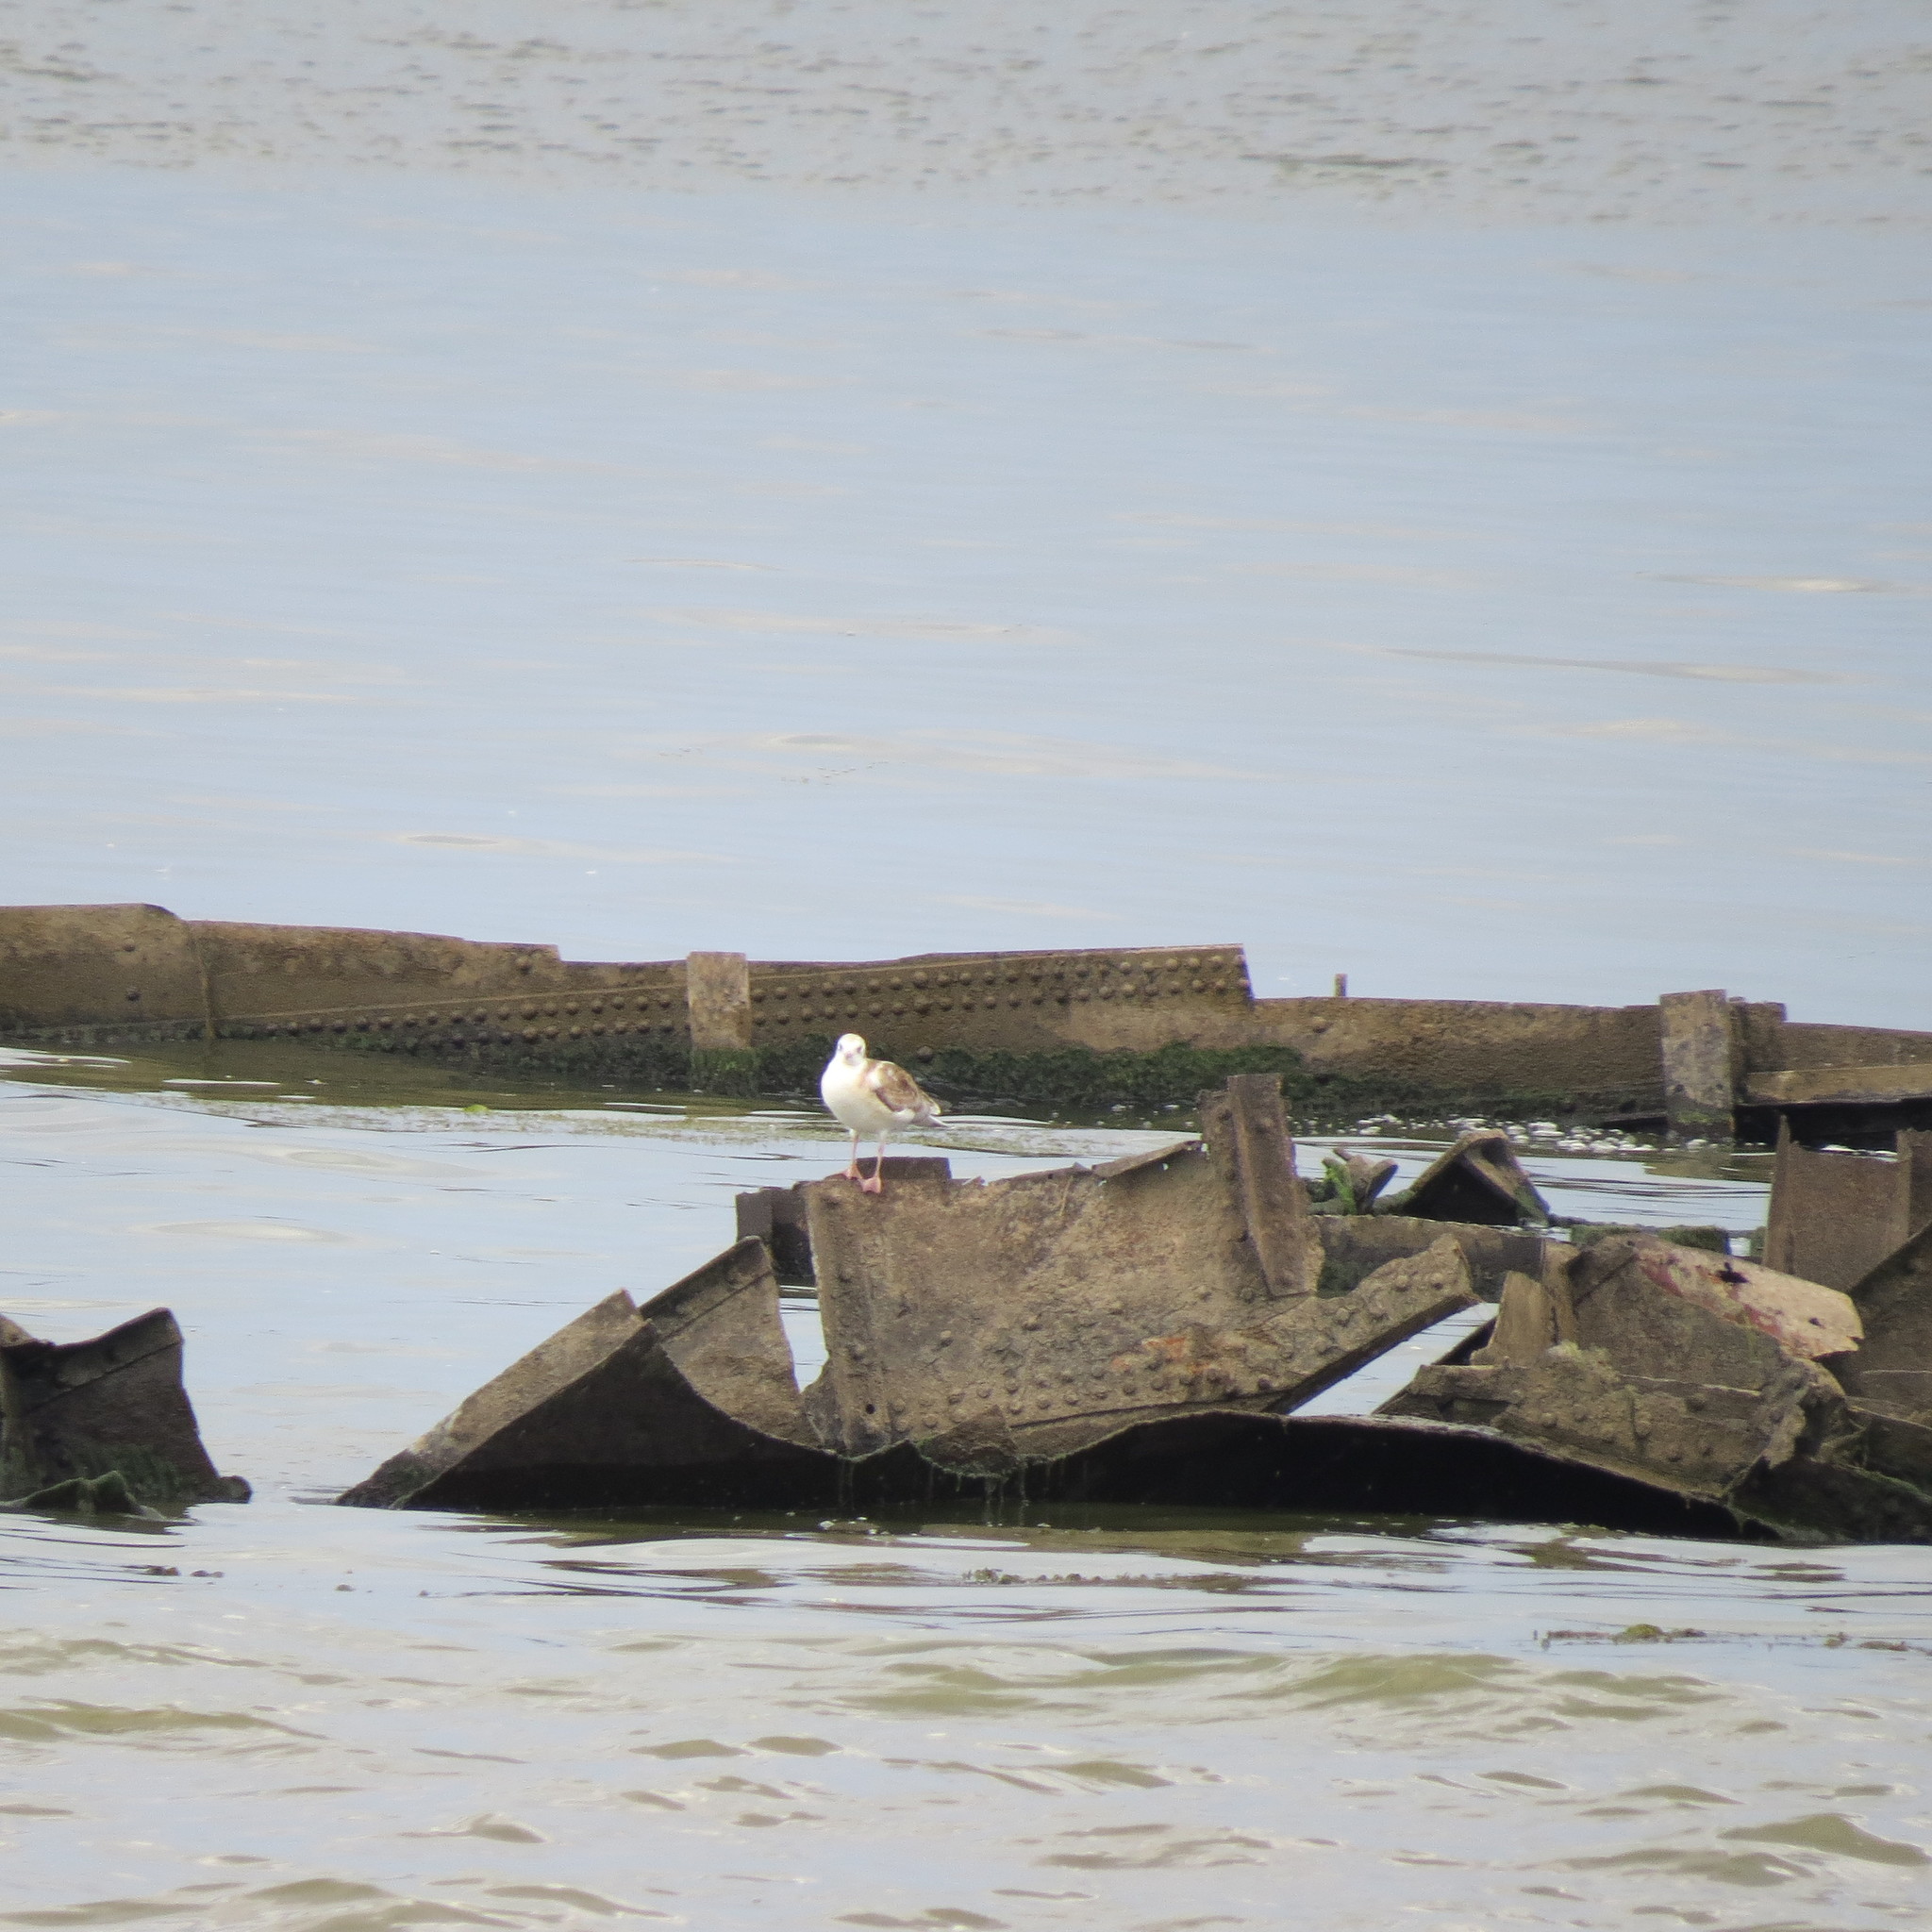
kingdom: Animalia
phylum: Chordata
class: Aves
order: Charadriiformes
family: Laridae
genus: Chroicocephalus
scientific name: Chroicocephalus ridibundus
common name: Black-headed gull
